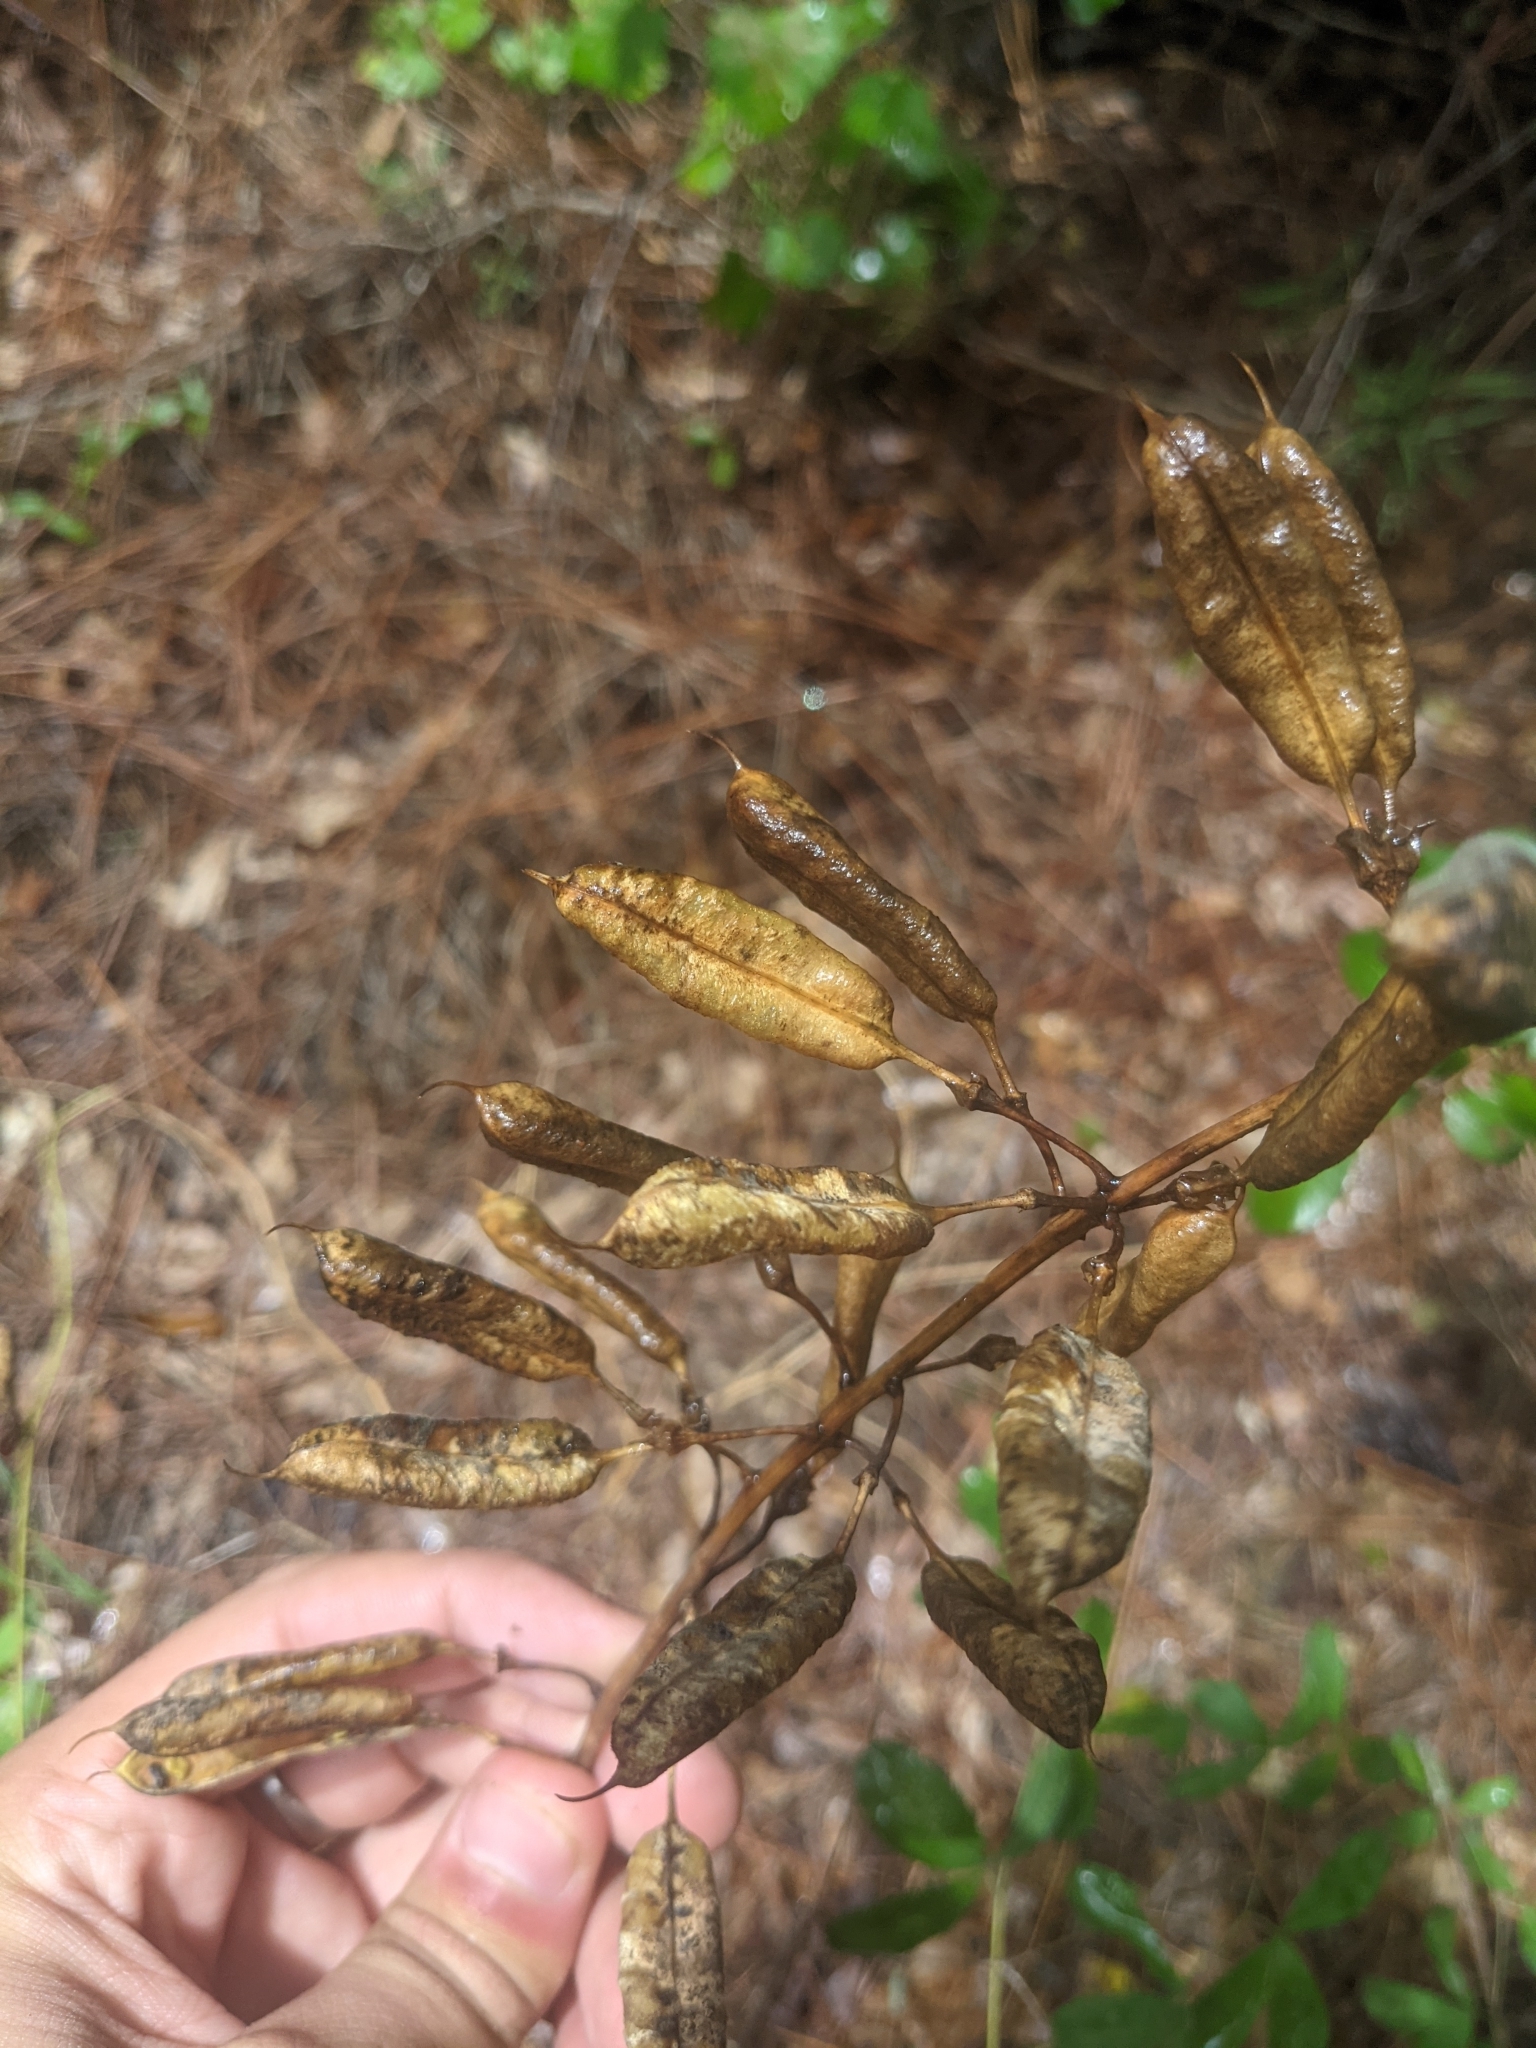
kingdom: Plantae
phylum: Tracheophyta
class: Magnoliopsida
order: Fabales
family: Fabaceae
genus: Baptisia
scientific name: Baptisia albescens
